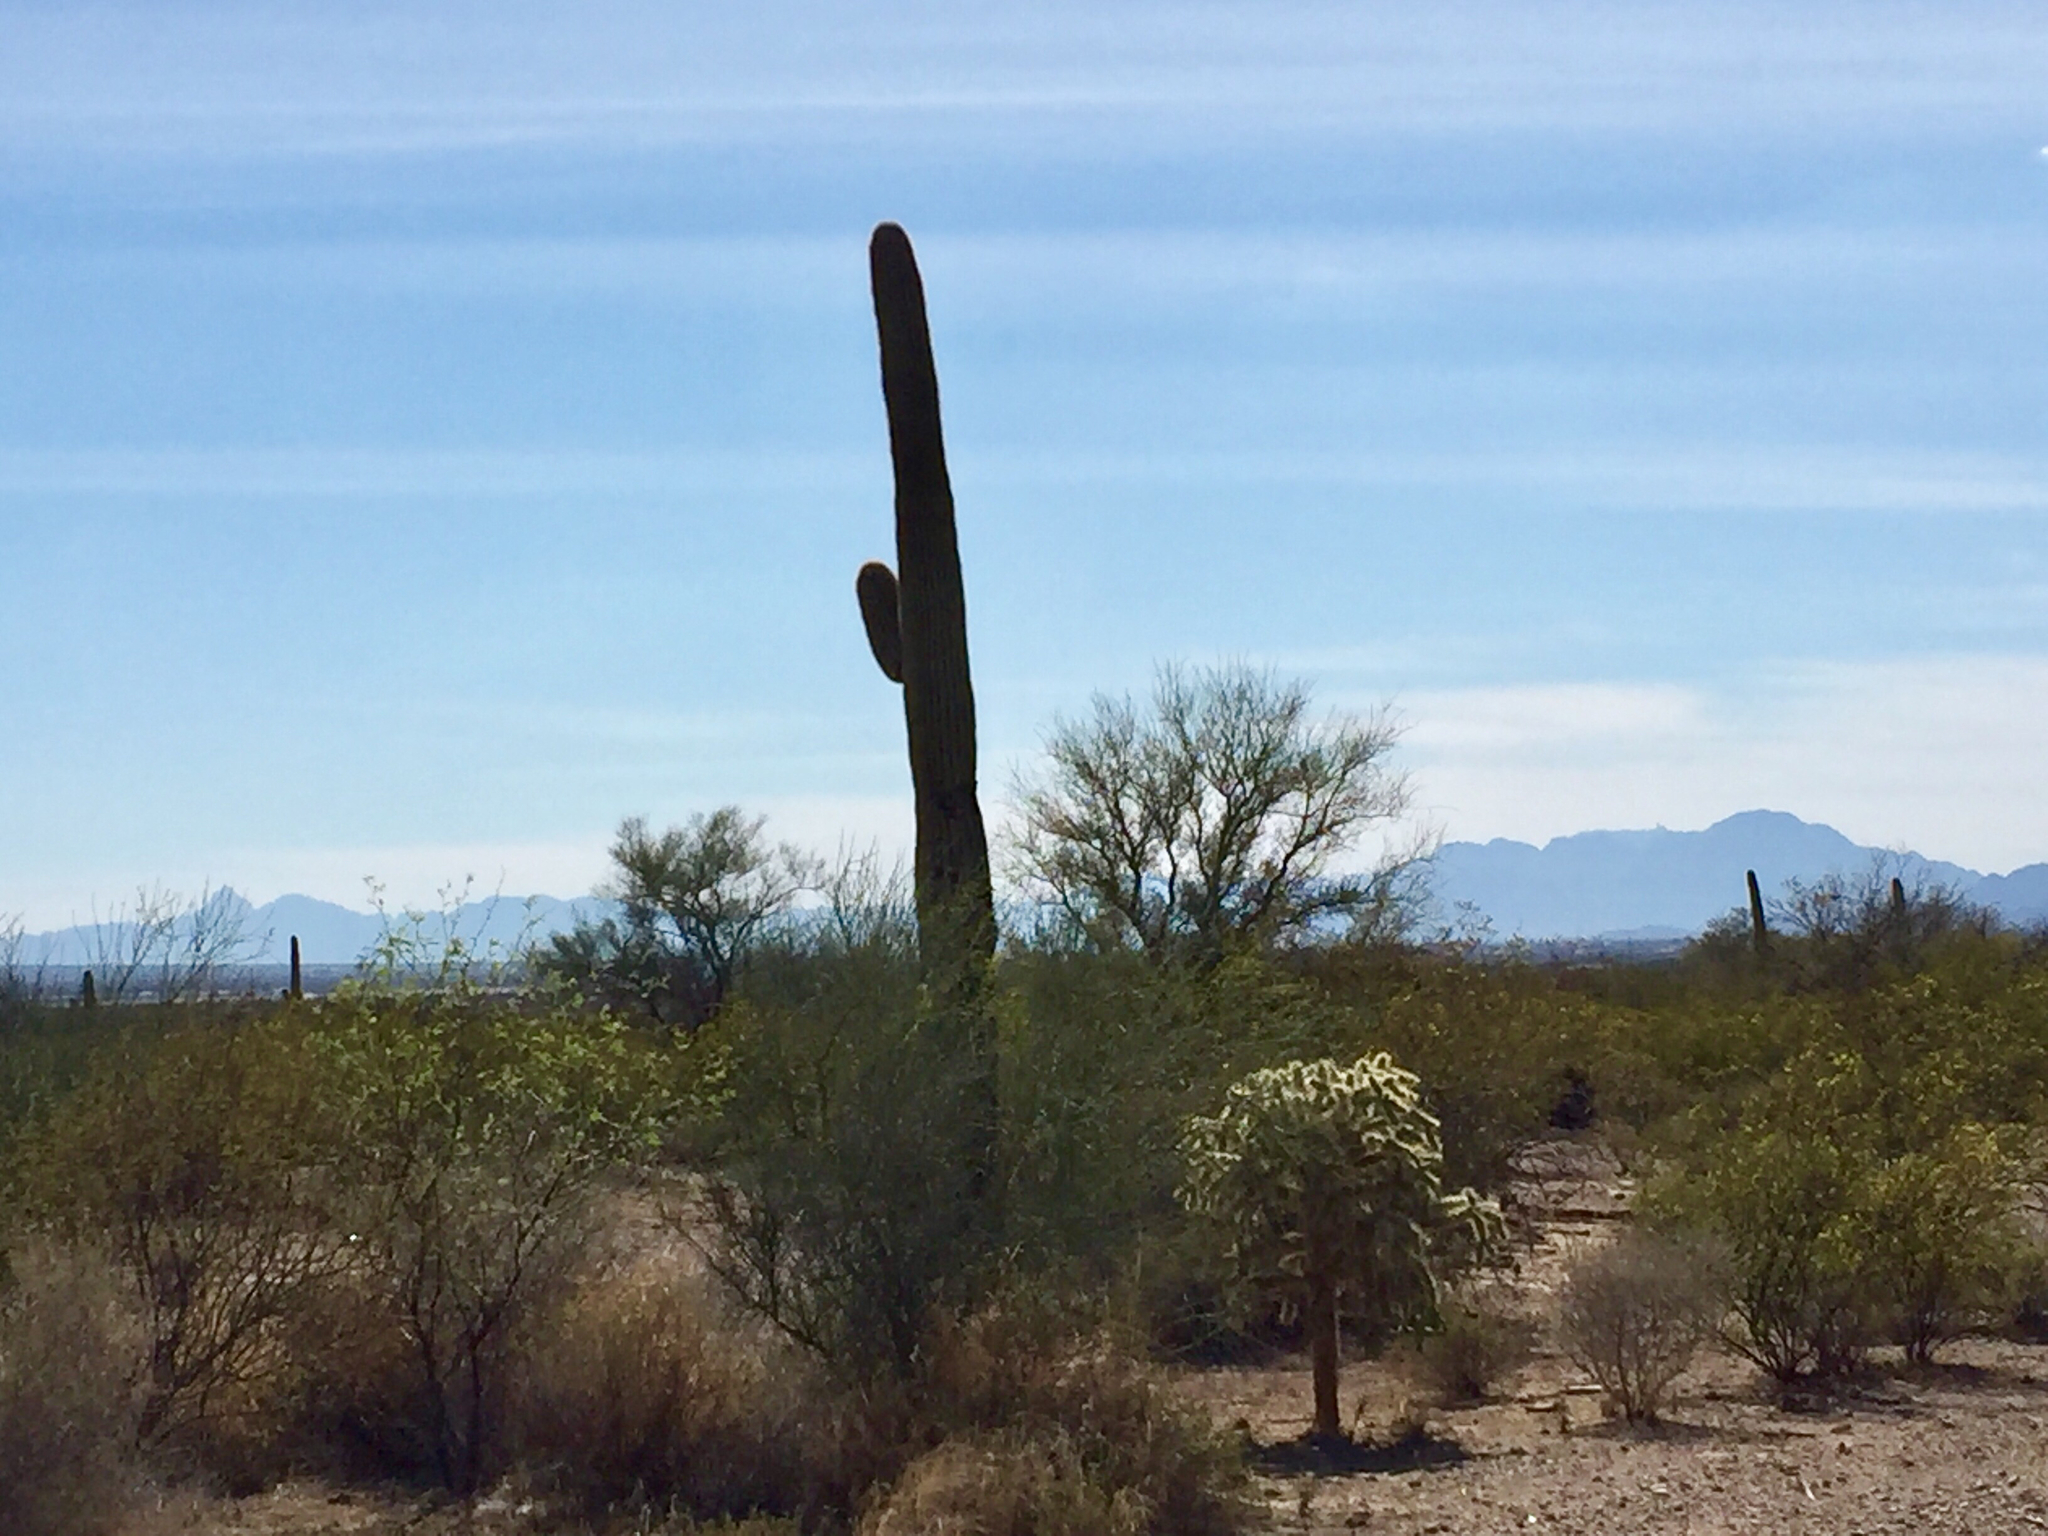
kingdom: Plantae
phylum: Tracheophyta
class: Magnoliopsida
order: Caryophyllales
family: Cactaceae
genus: Carnegiea
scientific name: Carnegiea gigantea
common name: Saguaro
